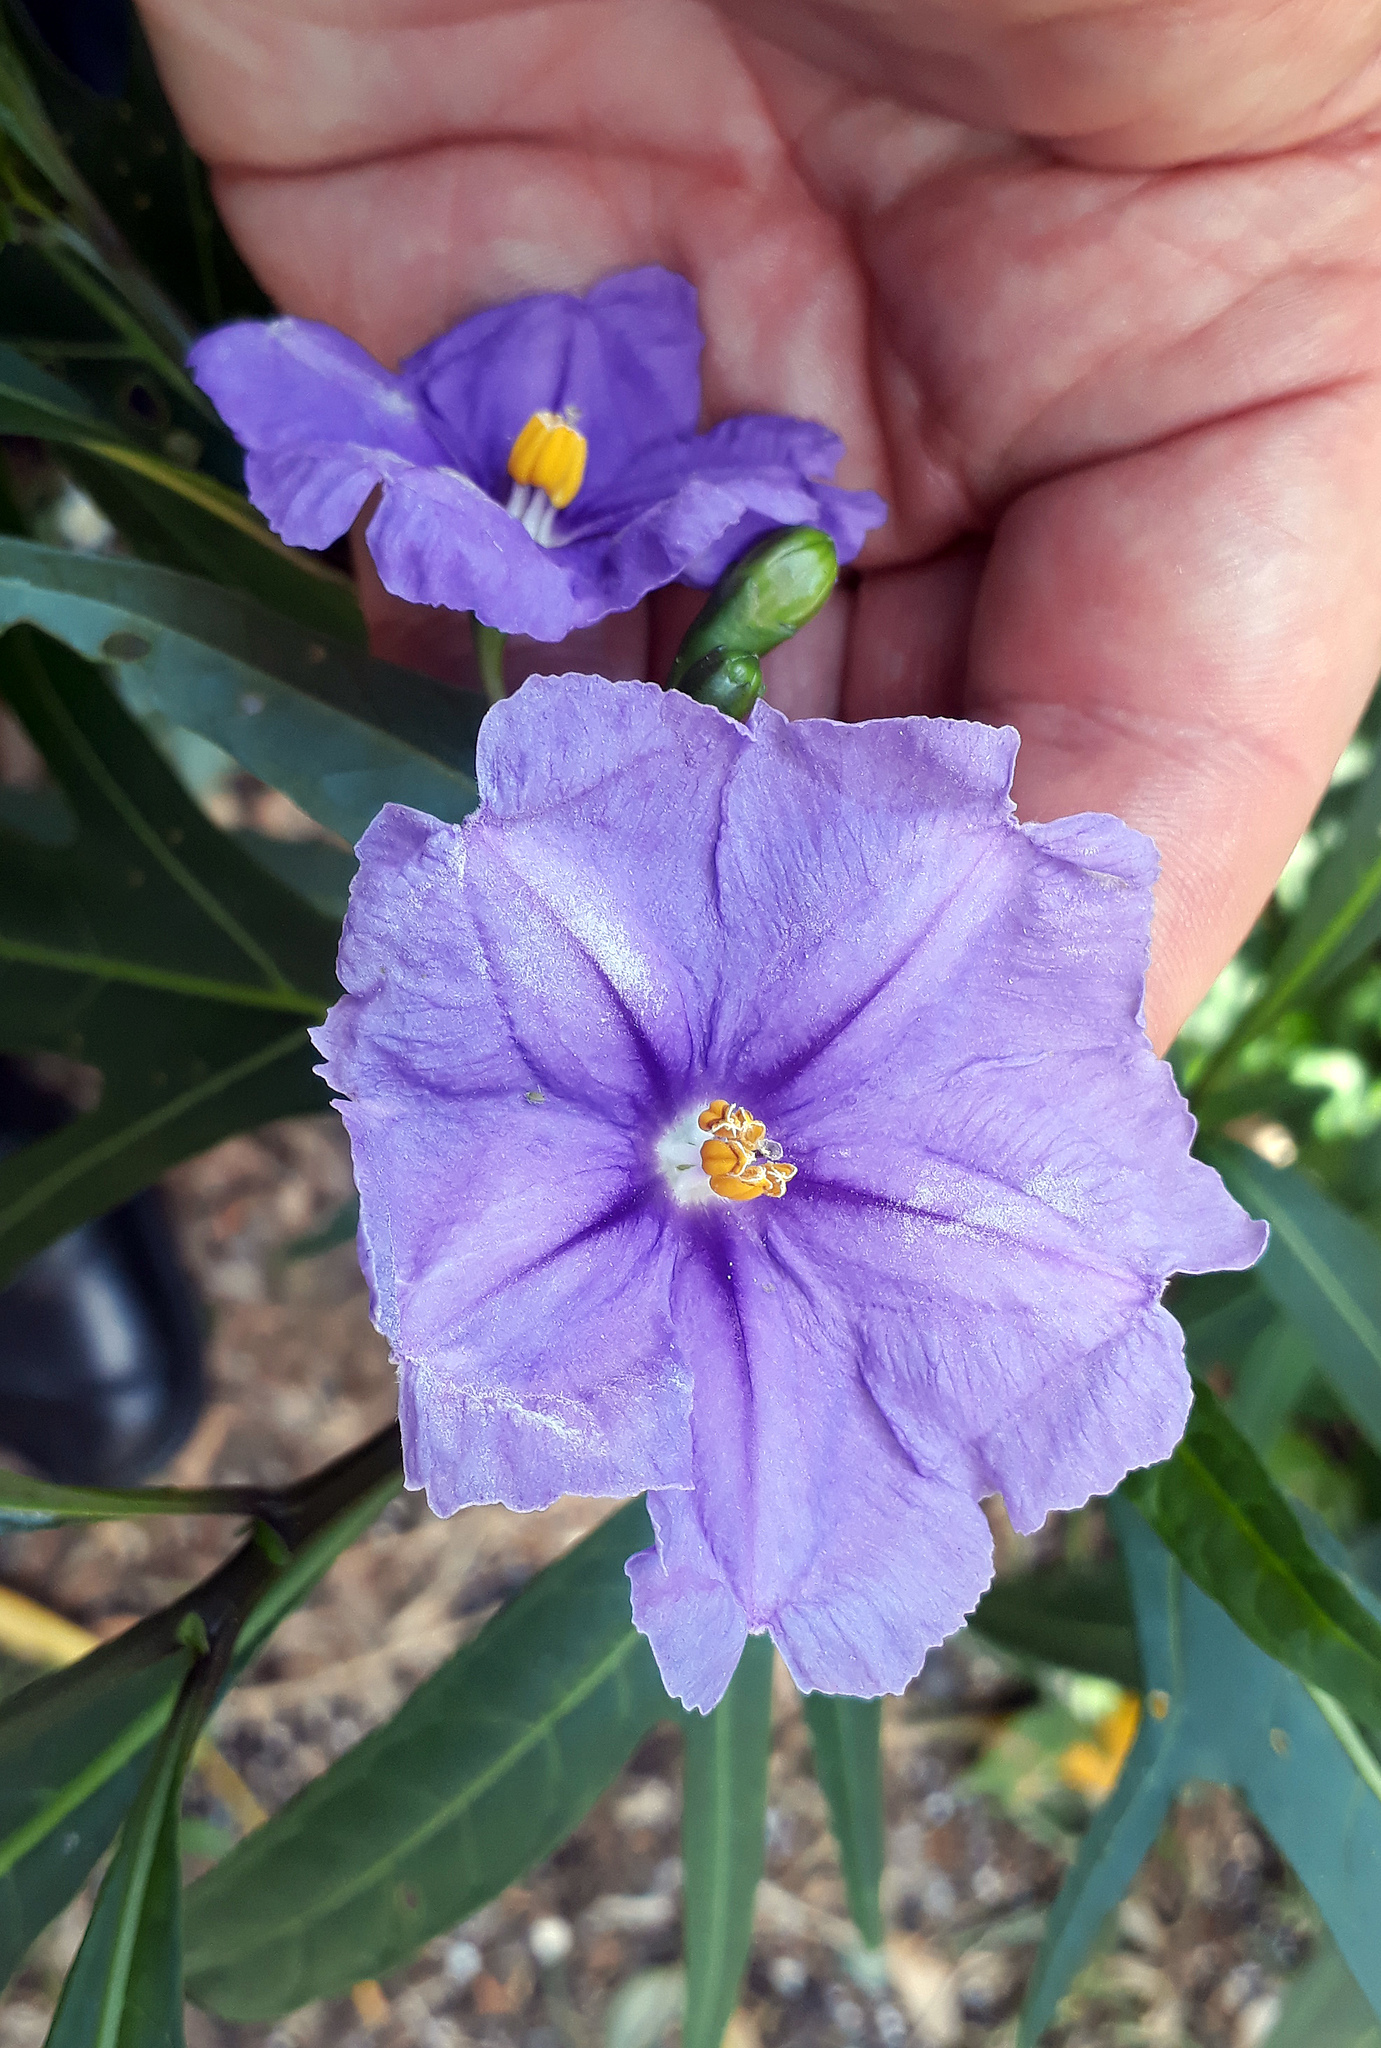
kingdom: Plantae
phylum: Tracheophyta
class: Magnoliopsida
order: Solanales
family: Solanaceae
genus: Solanum
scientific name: Solanum laciniatum
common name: Kangaroo-apple
